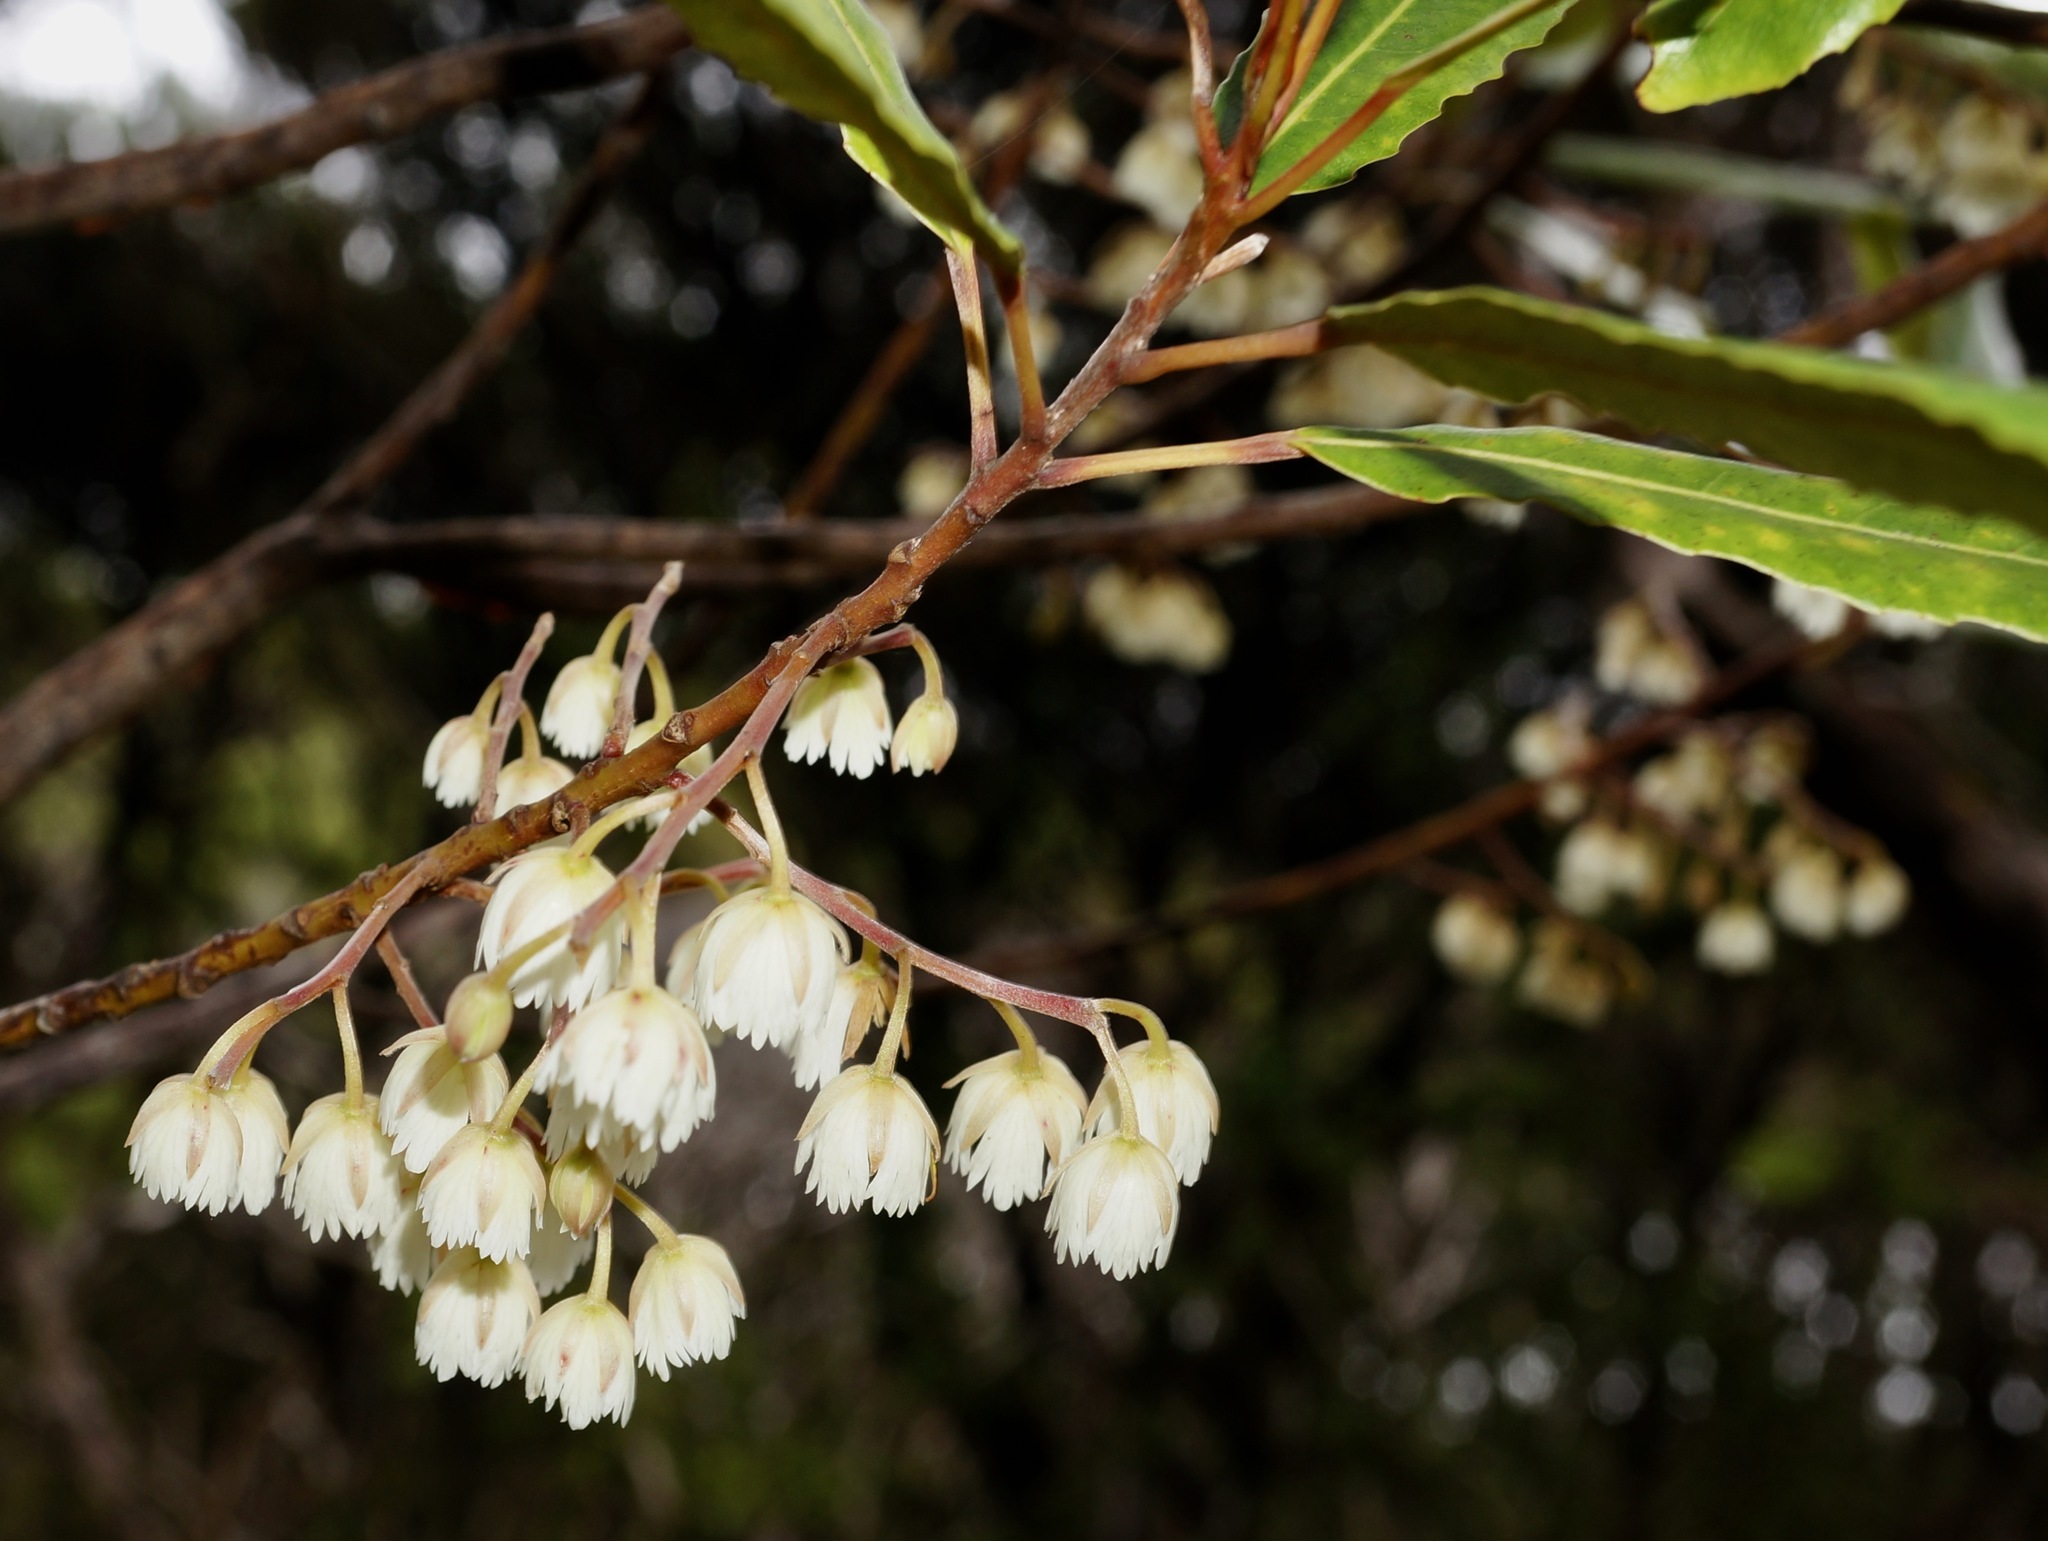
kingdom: Plantae
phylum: Tracheophyta
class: Magnoliopsida
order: Oxalidales
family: Elaeocarpaceae
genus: Elaeocarpus
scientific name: Elaeocarpus dentatus
